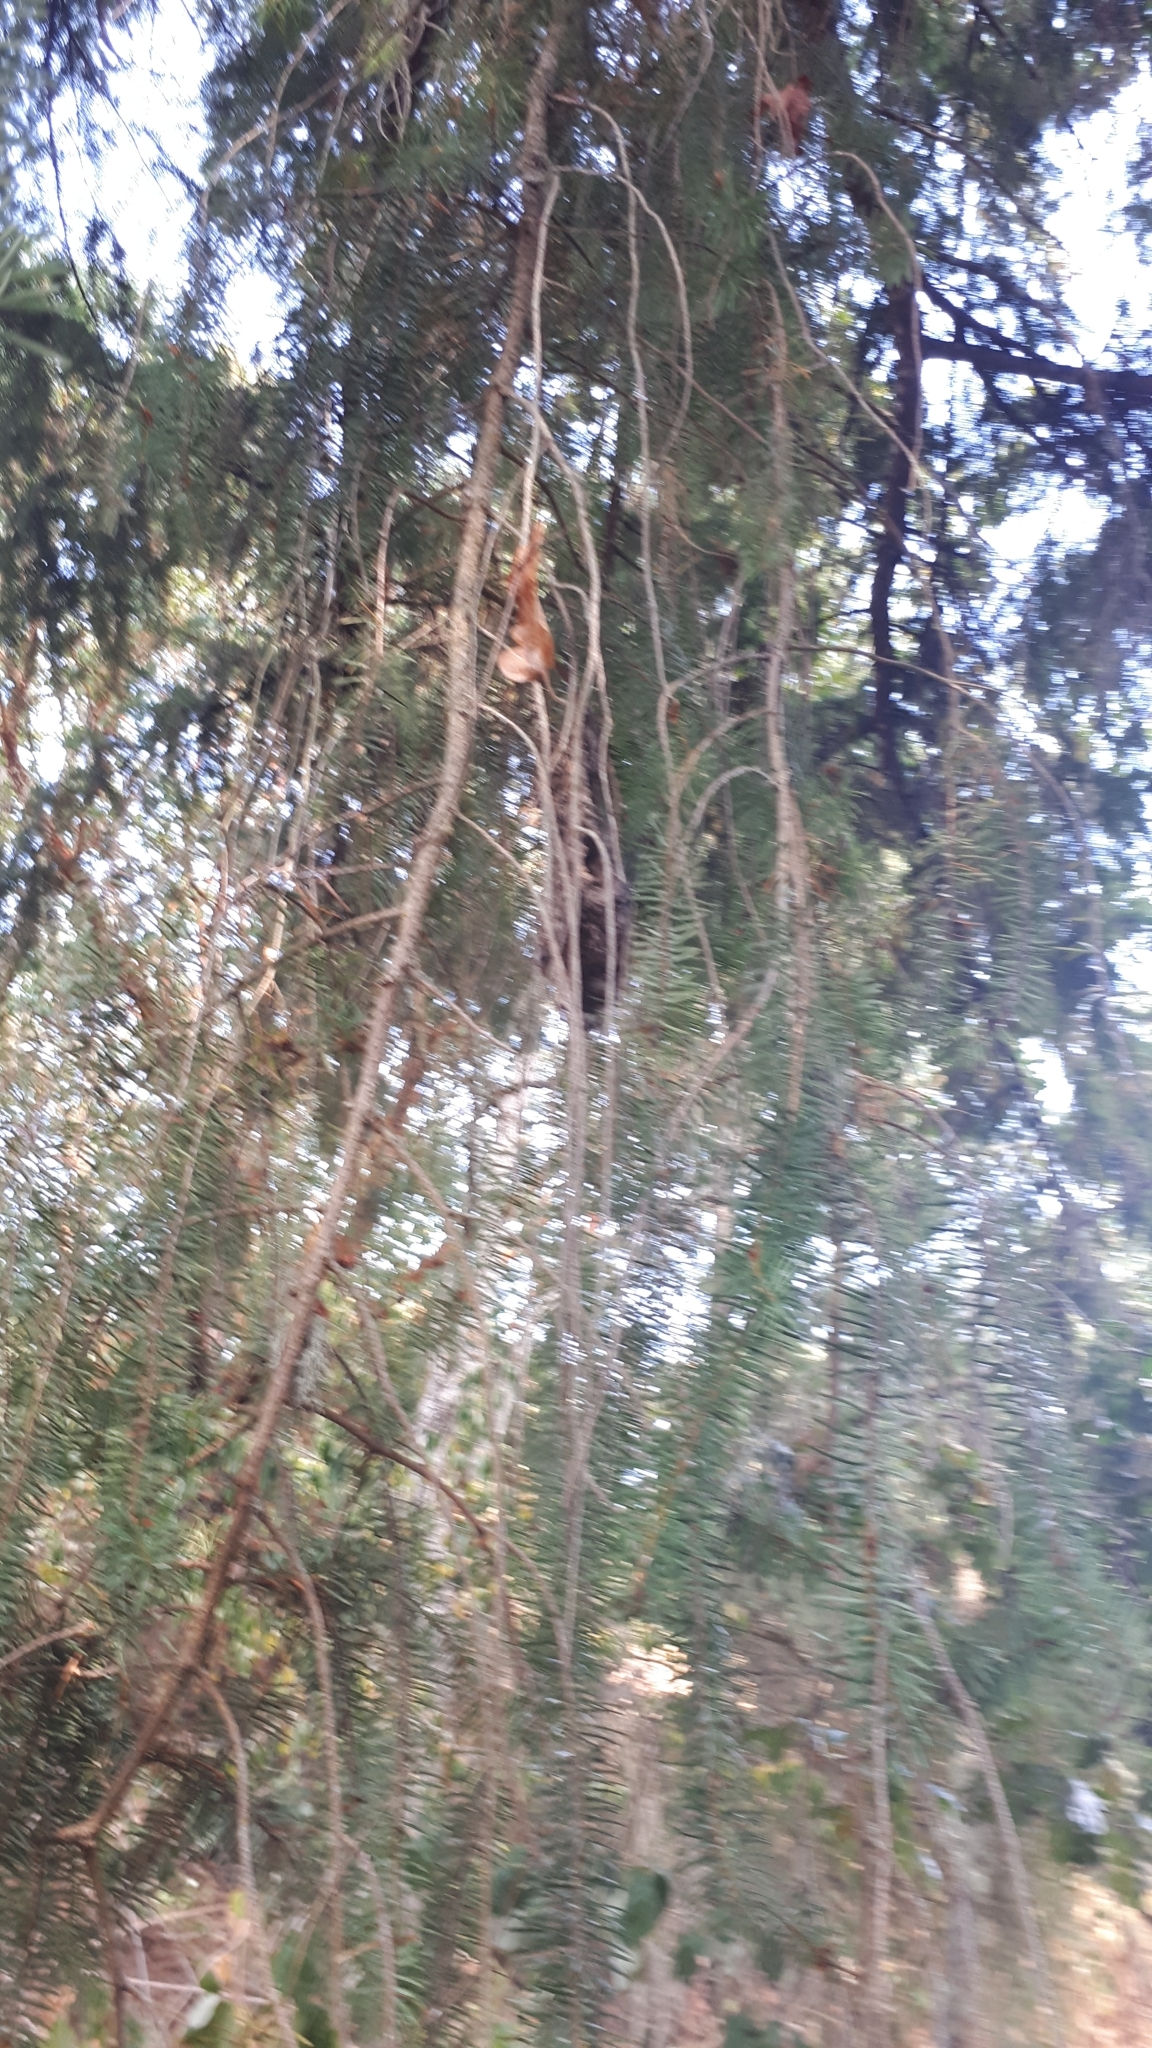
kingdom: Animalia
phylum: Chordata
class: Aves
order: Passeriformes
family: Aegithalidae
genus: Psaltriparus
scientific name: Psaltriparus minimus
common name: American bushtit
